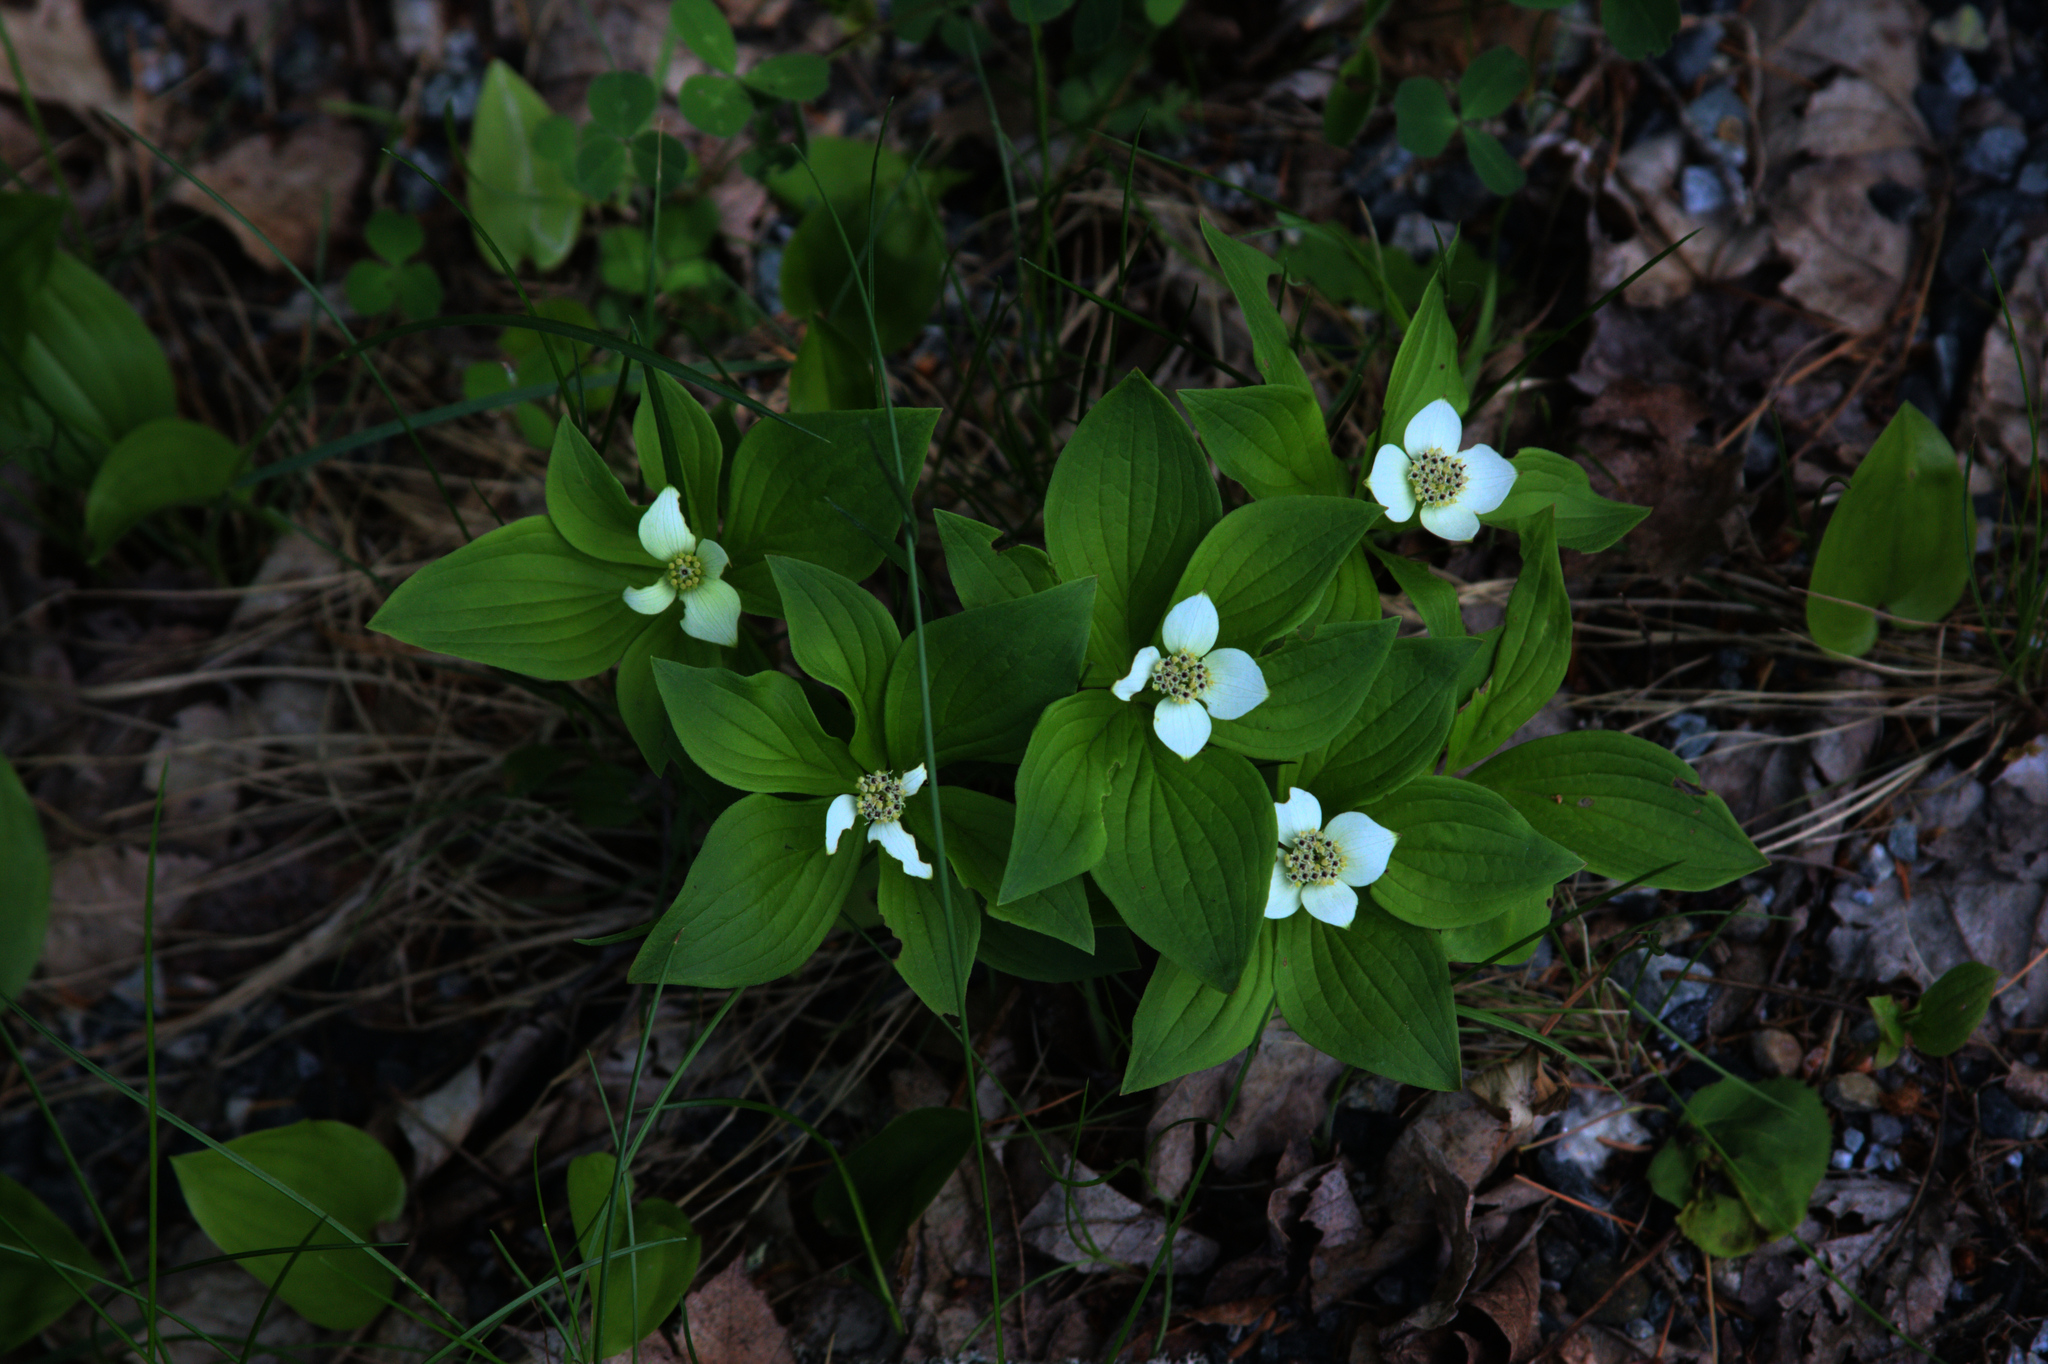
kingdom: Plantae
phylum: Tracheophyta
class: Magnoliopsida
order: Cornales
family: Cornaceae
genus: Cornus
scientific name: Cornus canadensis
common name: Creeping dogwood
